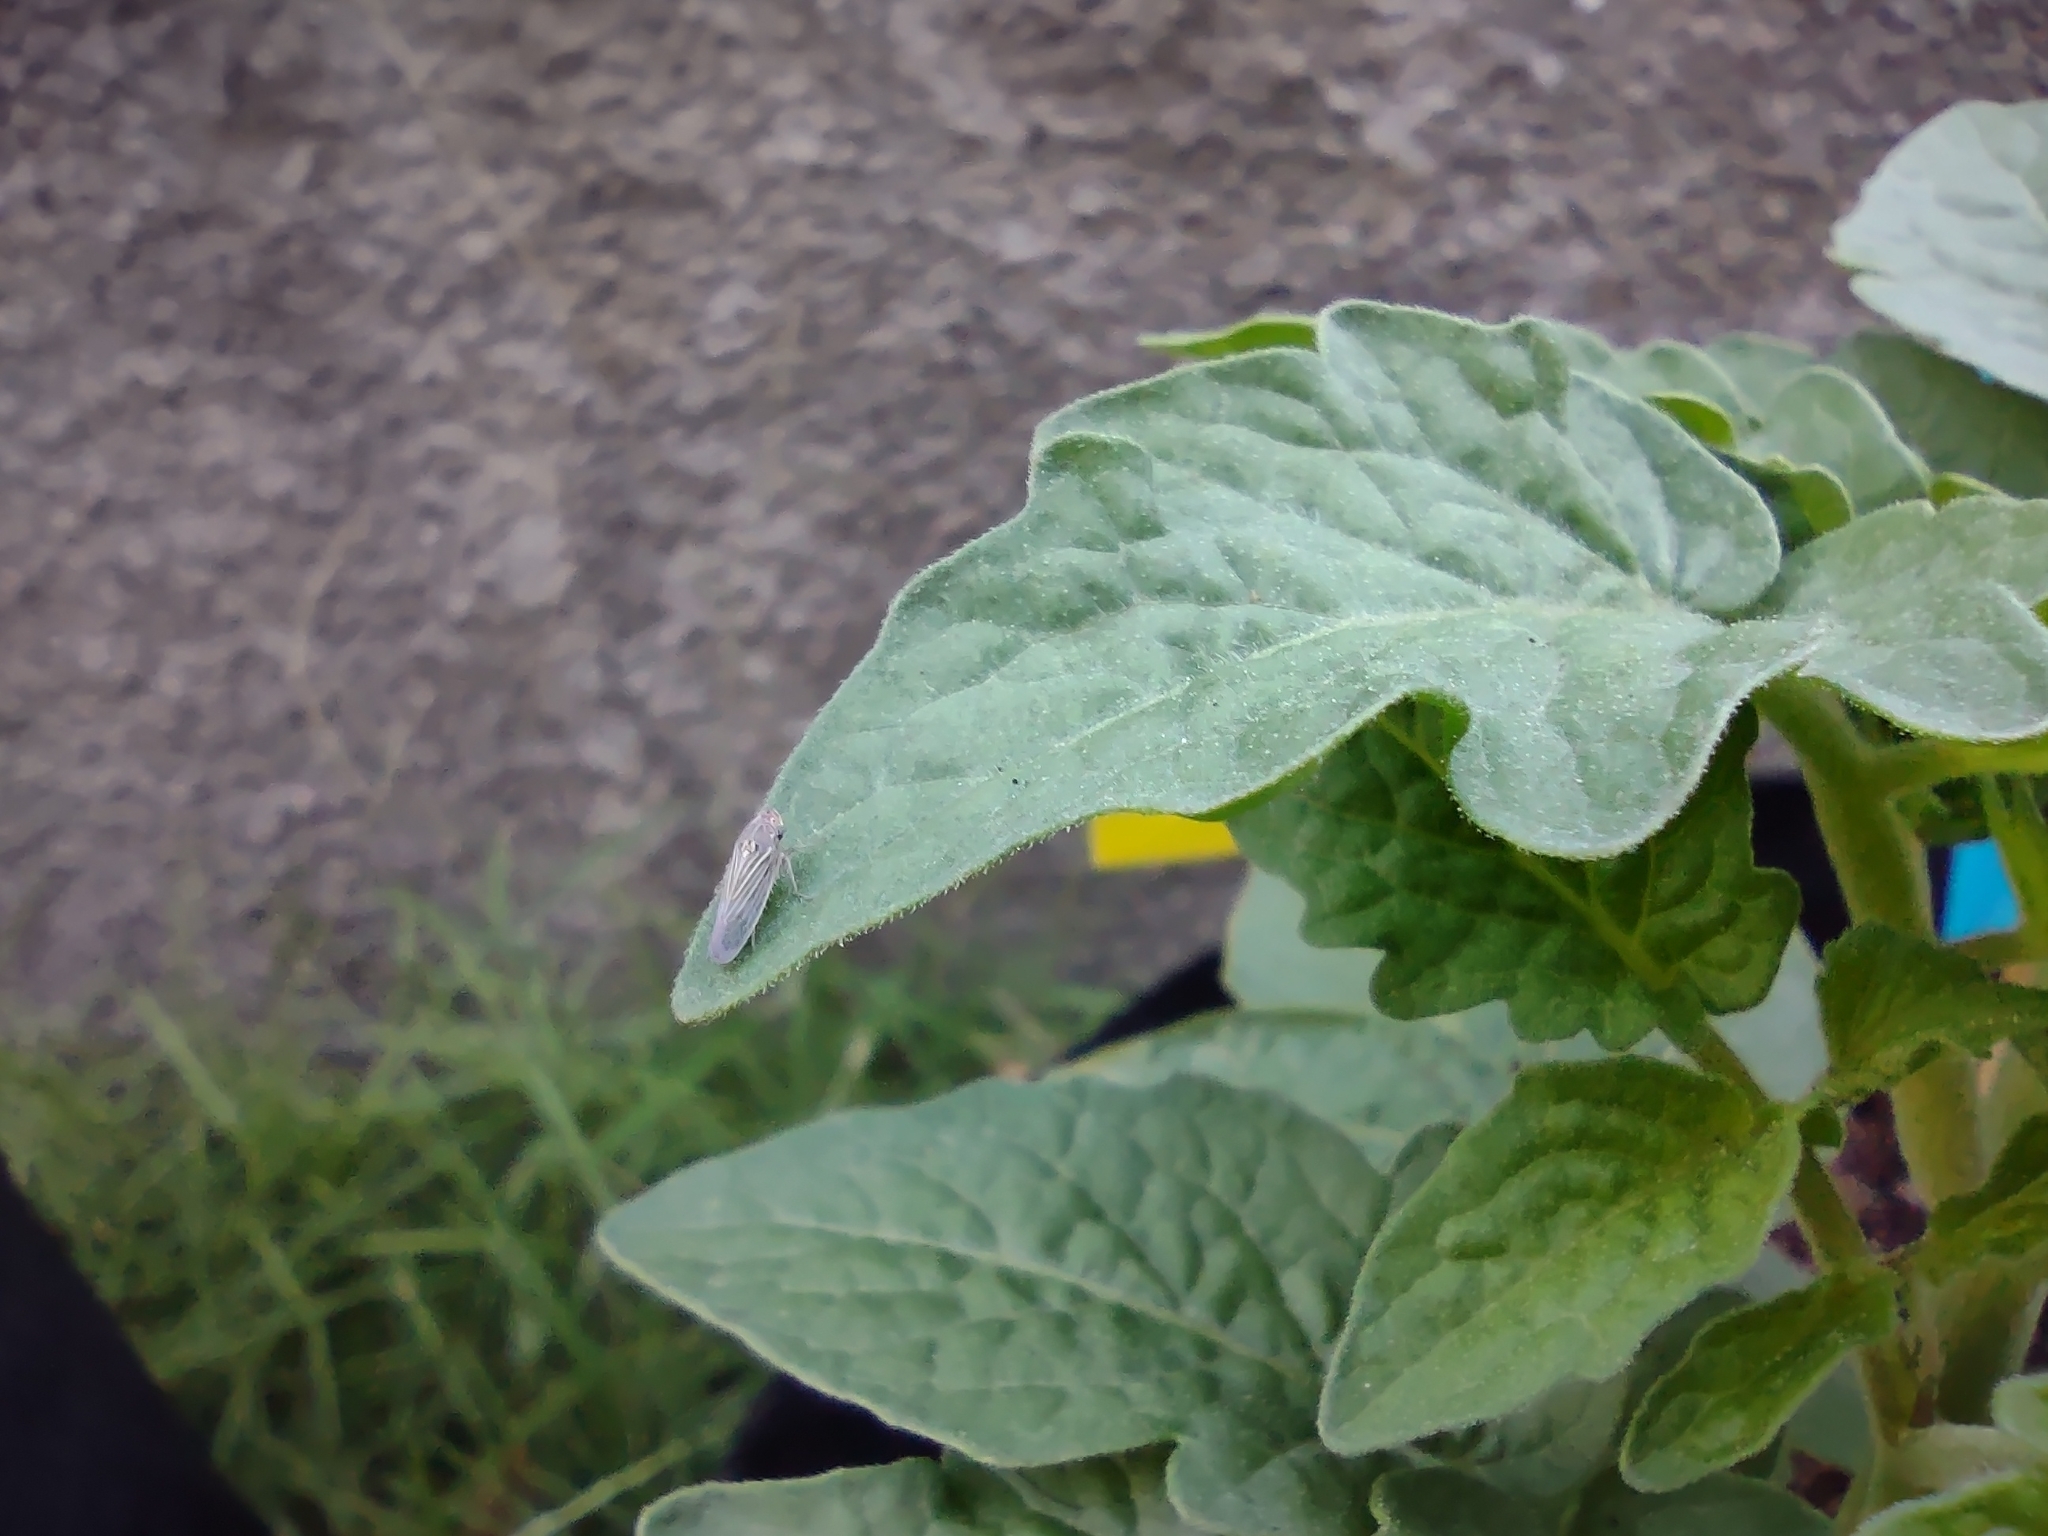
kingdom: Animalia
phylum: Arthropoda
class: Insecta
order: Hemiptera
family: Cicadellidae
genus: Xyphon
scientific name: Xyphon reticulatum
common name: Planthopper
